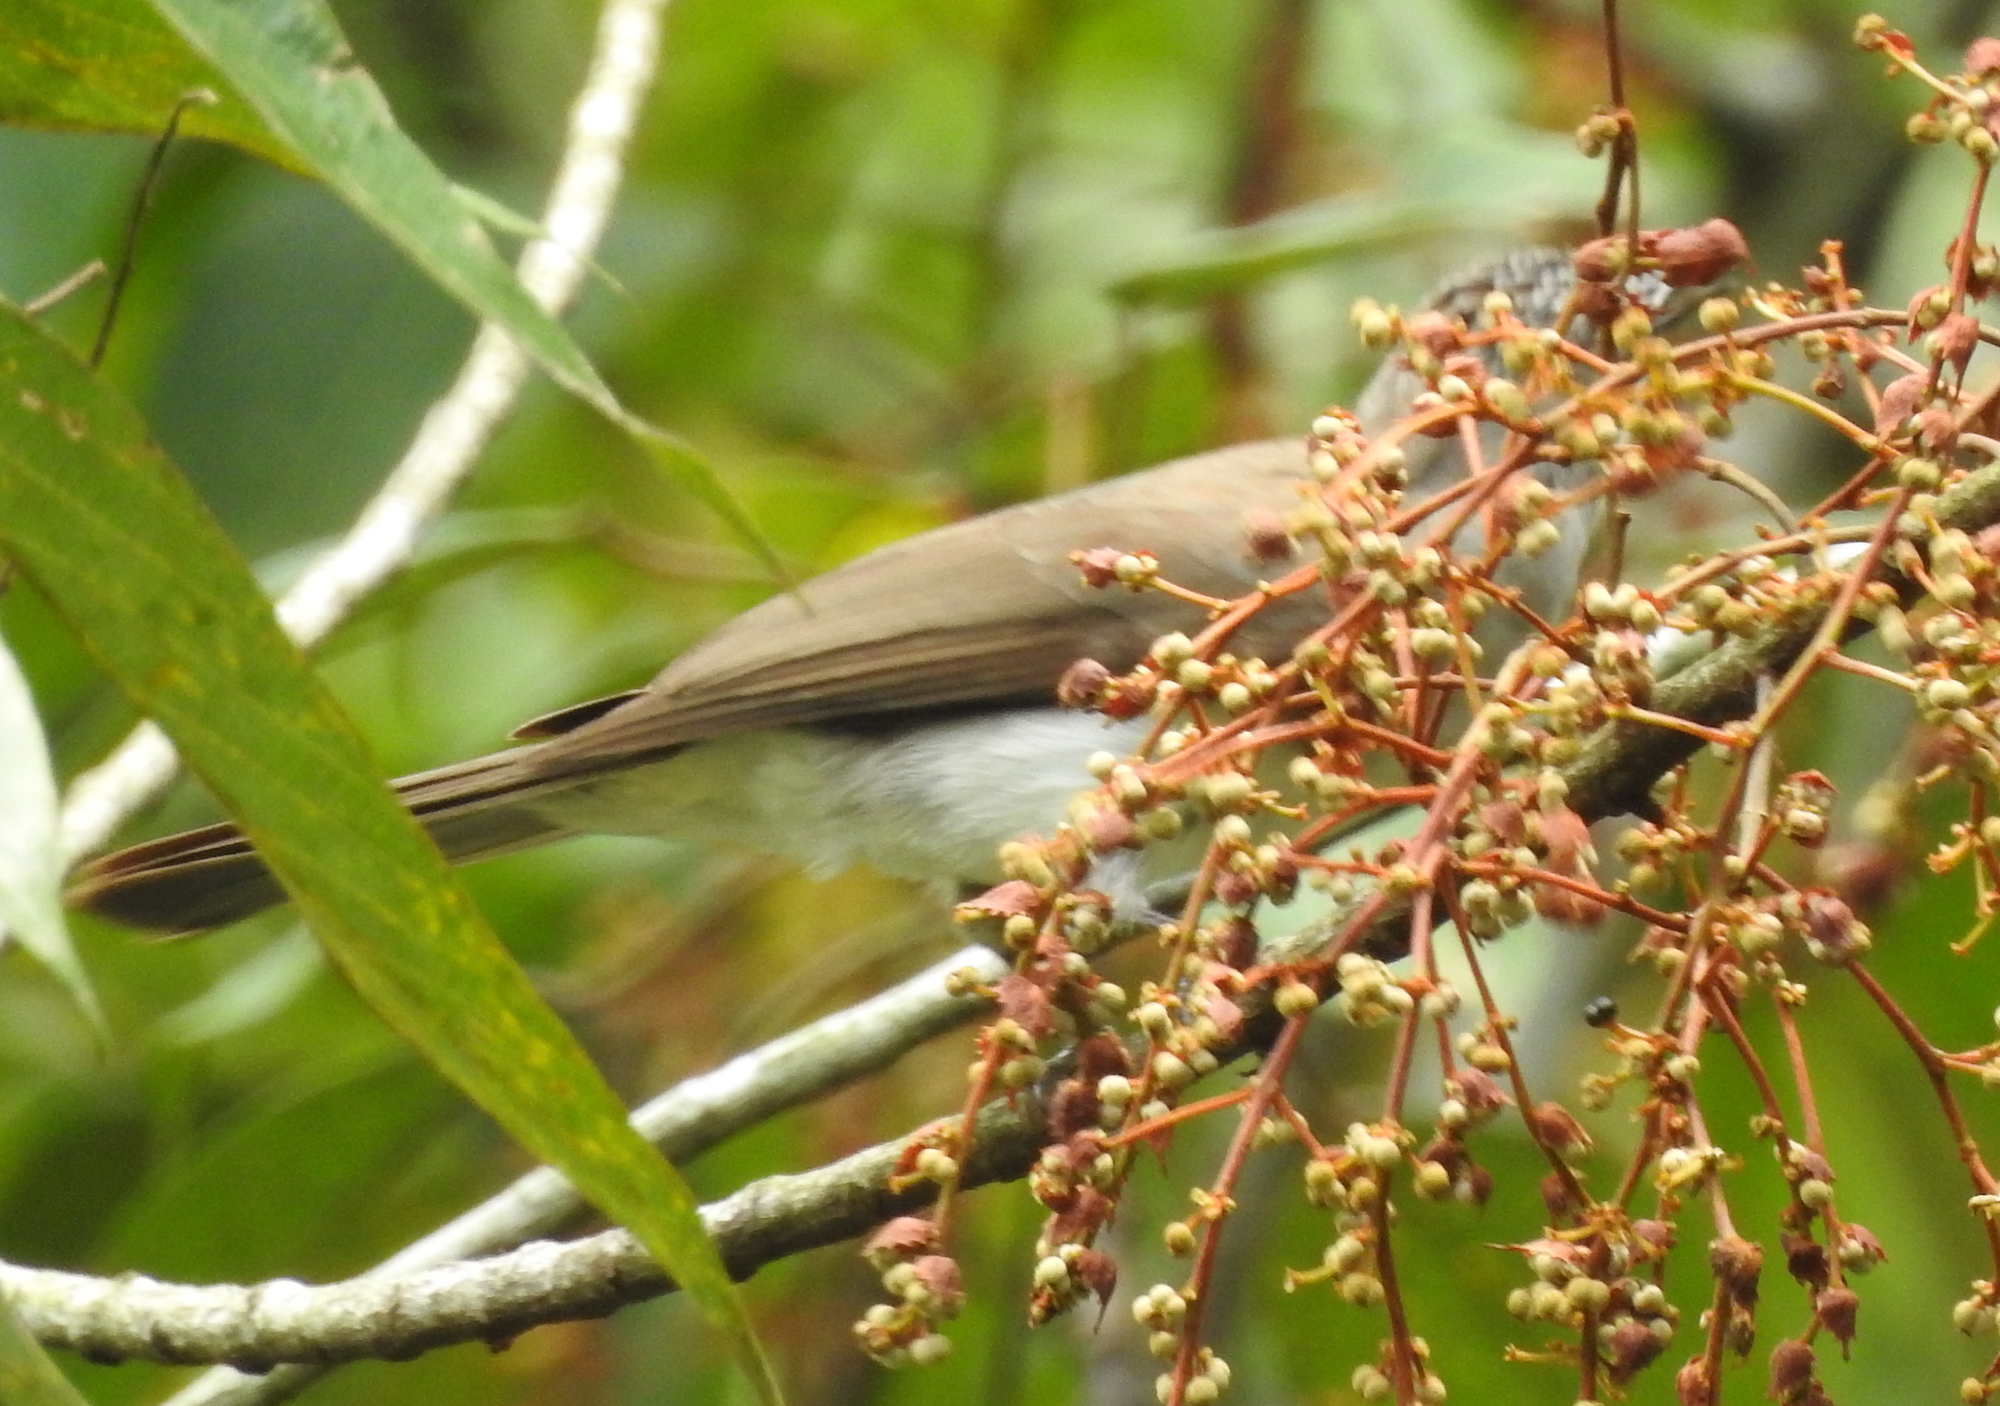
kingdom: Animalia
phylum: Chordata
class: Aves
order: Passeriformes
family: Pycnonotidae
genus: Hemixos
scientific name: Hemixos cinereus
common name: Cinereous bulbul
